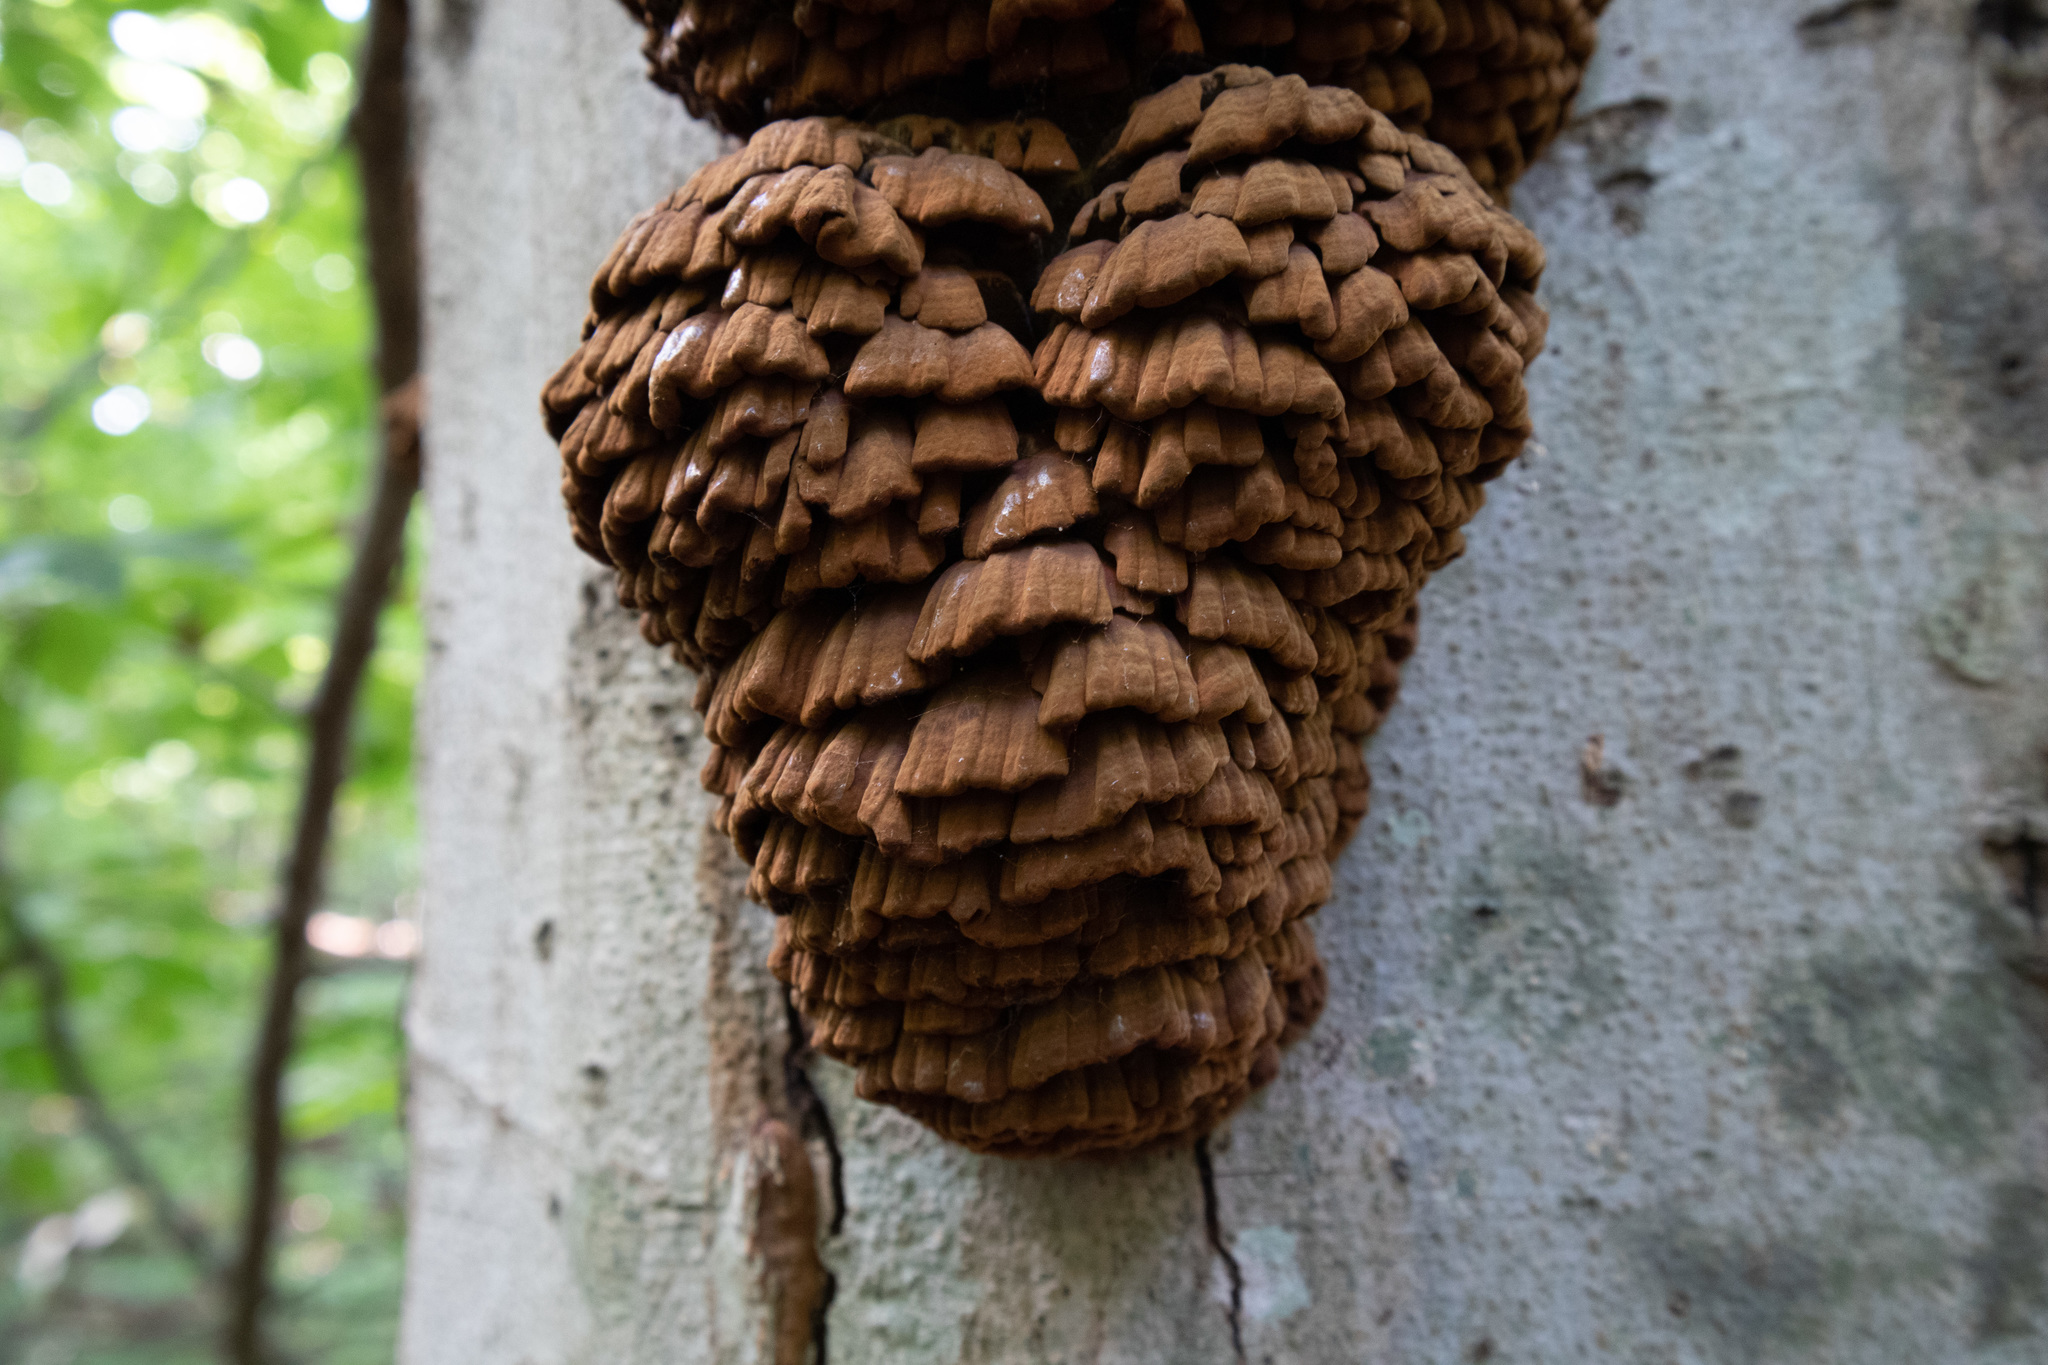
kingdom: Fungi
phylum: Basidiomycota
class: Agaricomycetes
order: Polyporales
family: Polyporaceae
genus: Globifomes
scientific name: Globifomes graveolens
